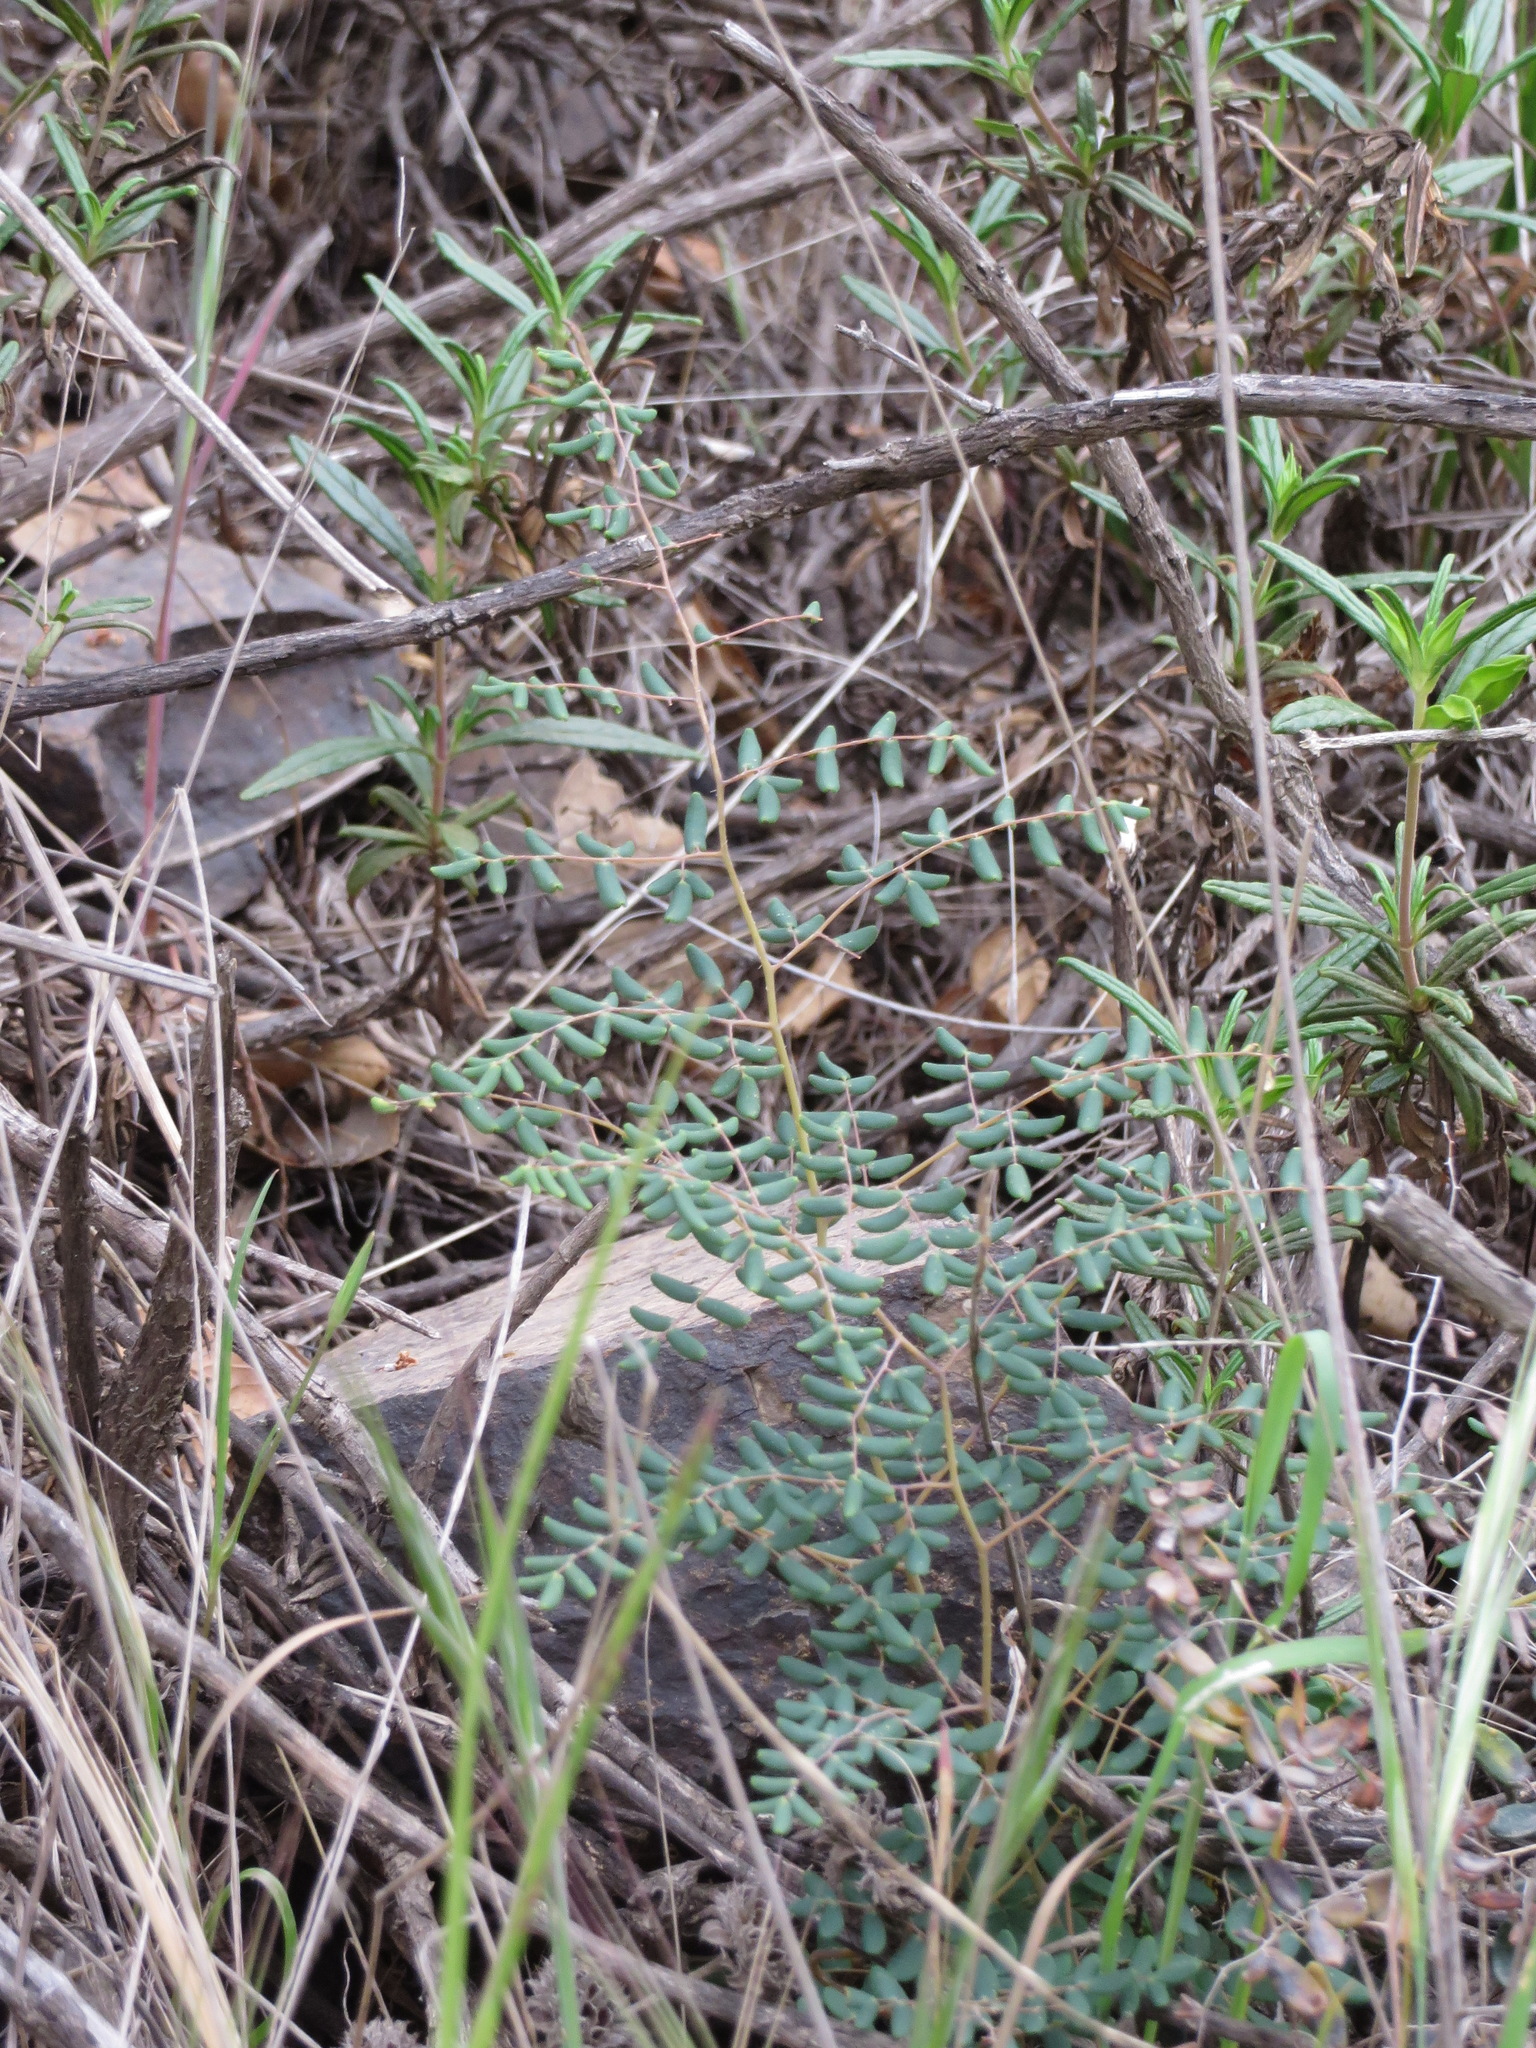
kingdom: Plantae
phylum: Tracheophyta
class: Polypodiopsida
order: Polypodiales
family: Pteridaceae
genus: Pellaea
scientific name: Pellaea andromedifolia
